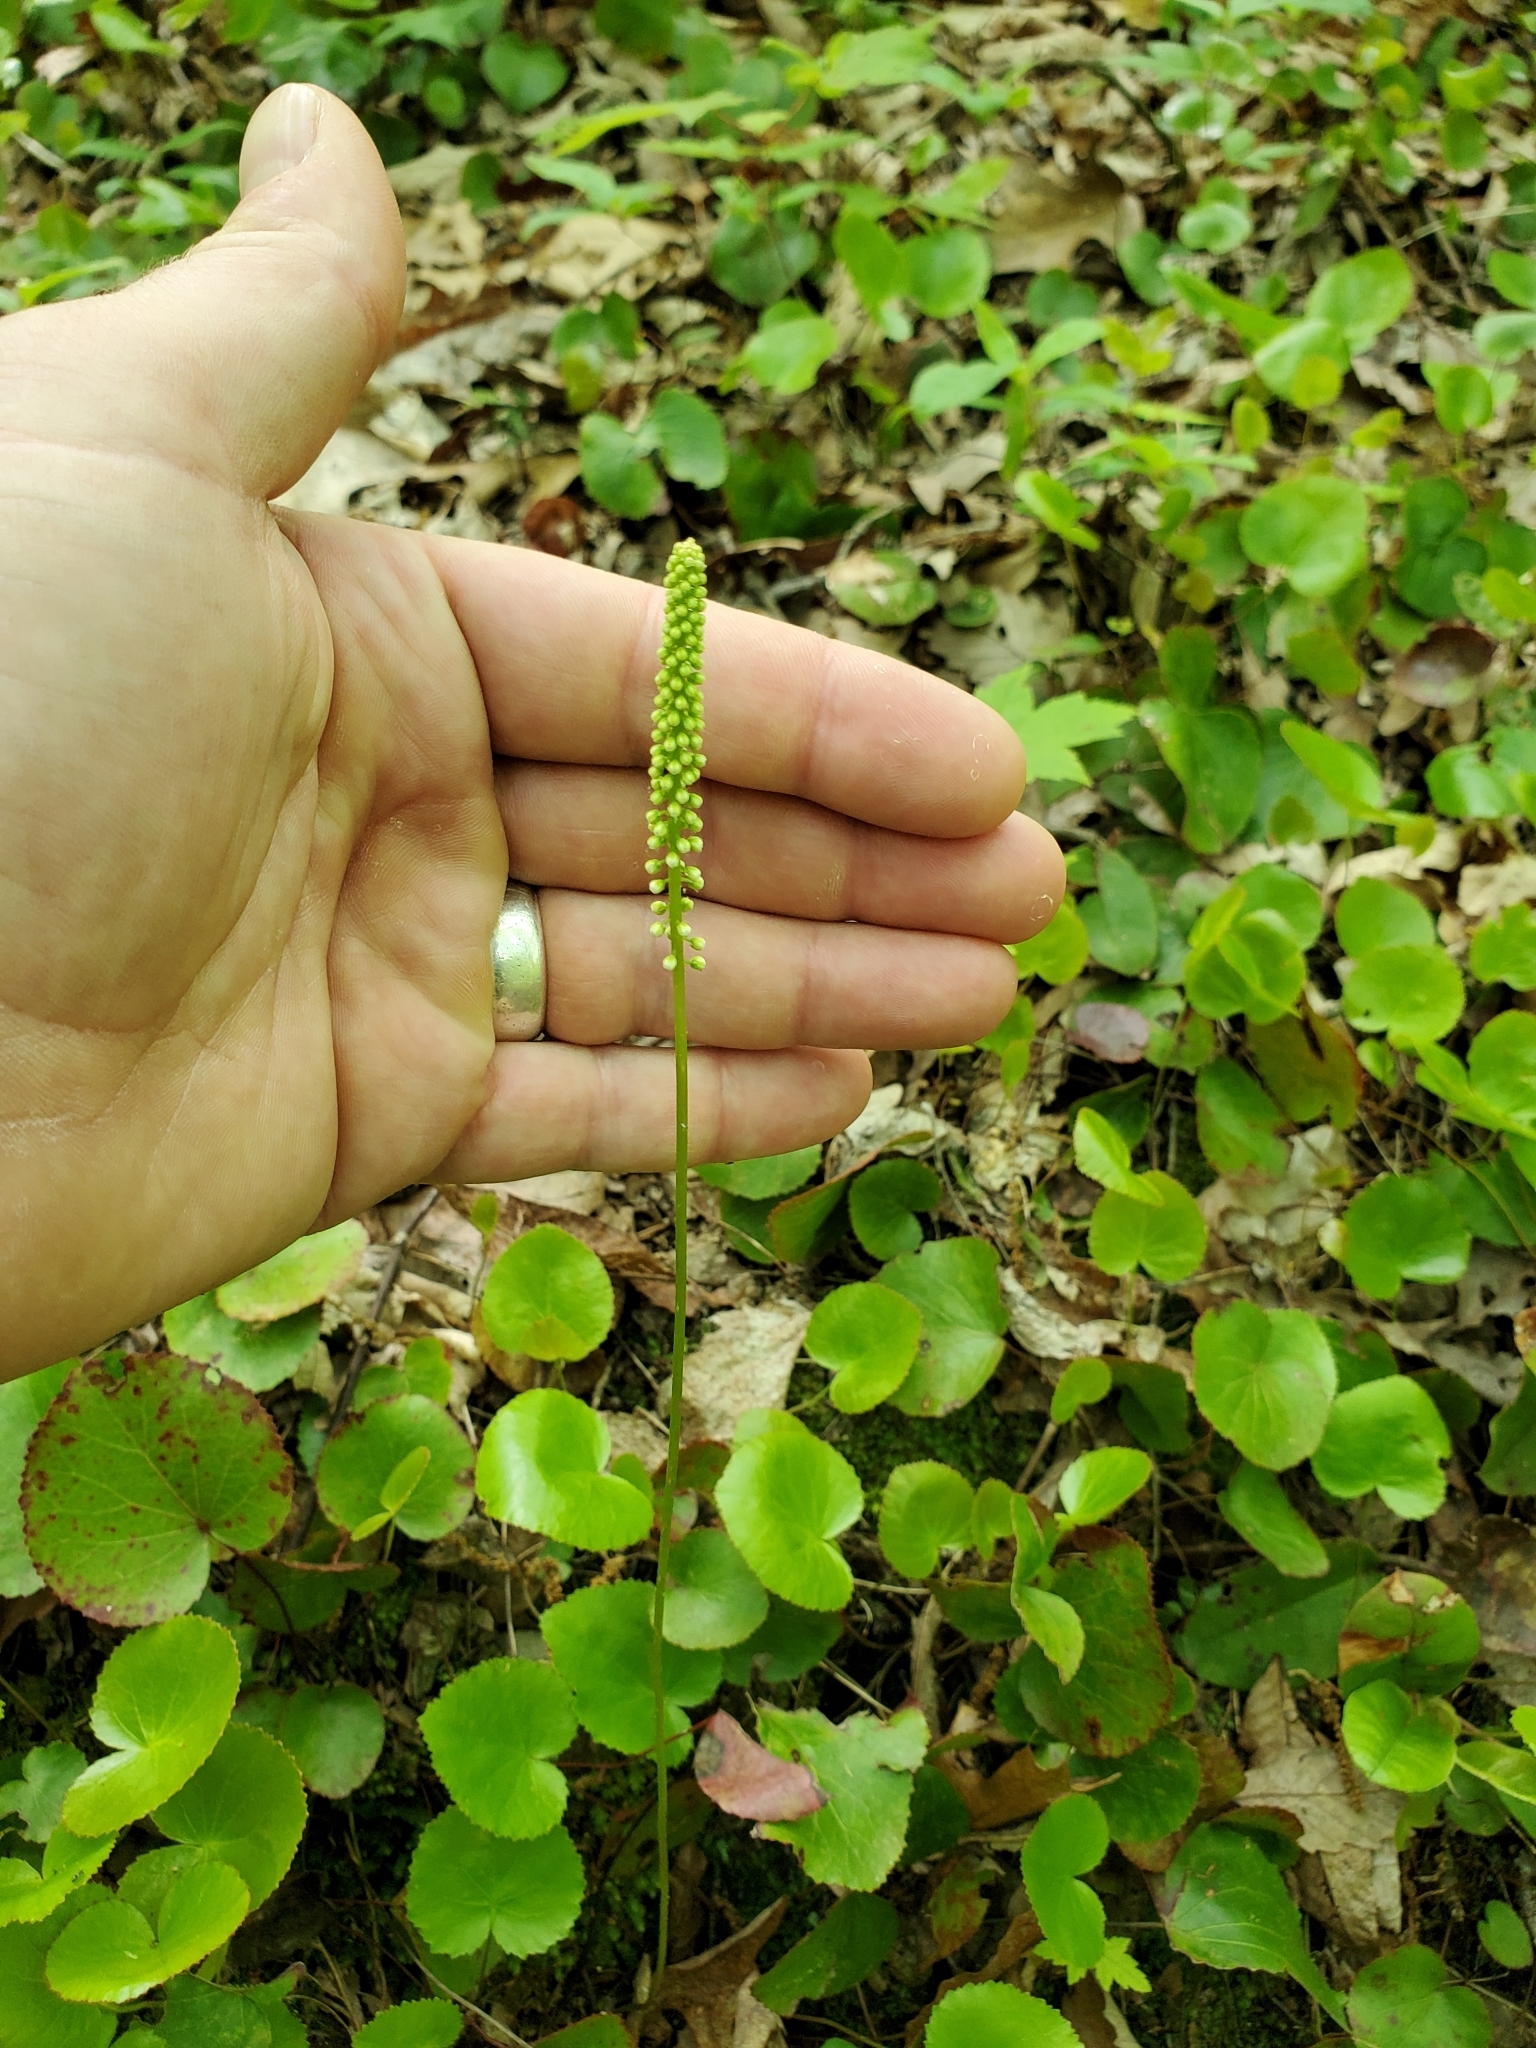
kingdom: Plantae
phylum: Tracheophyta
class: Magnoliopsida
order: Ericales
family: Diapensiaceae
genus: Galax
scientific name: Galax urceolata
